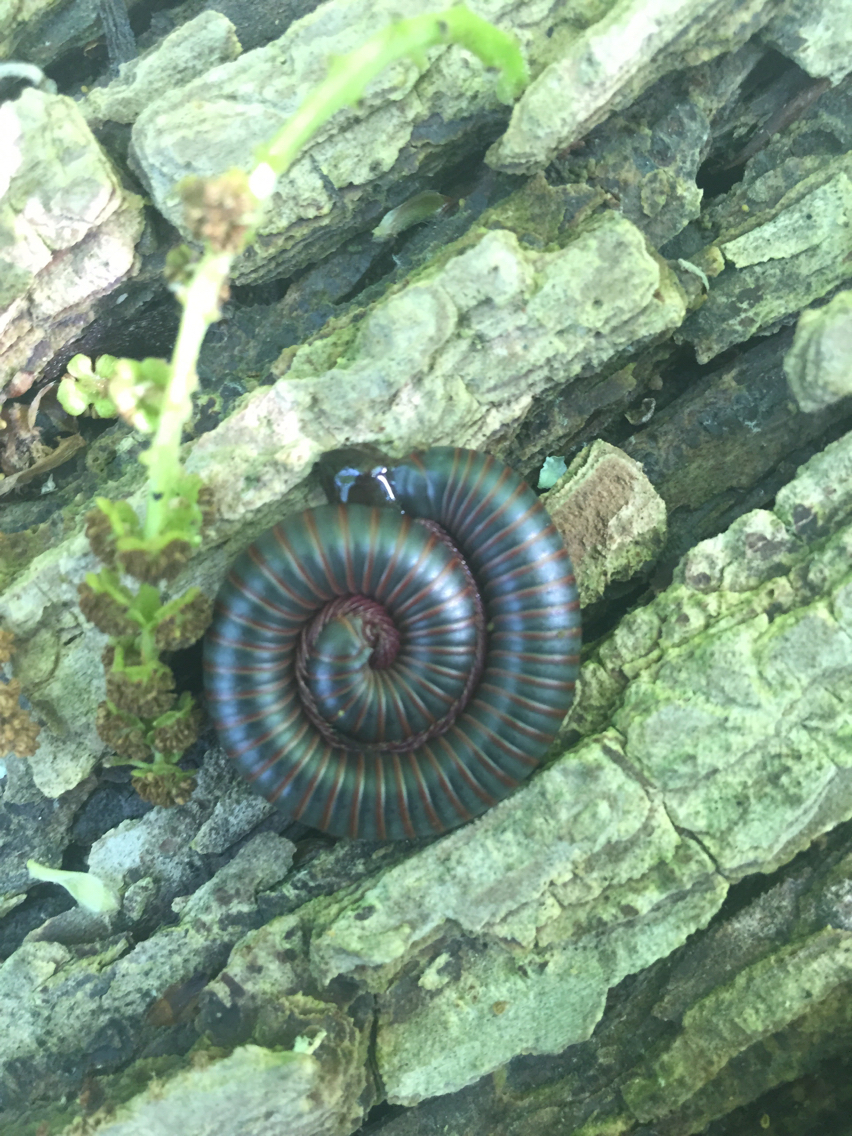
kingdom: Animalia
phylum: Arthropoda
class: Diplopoda
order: Spirobolida
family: Spirobolidae
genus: Narceus
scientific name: Narceus
